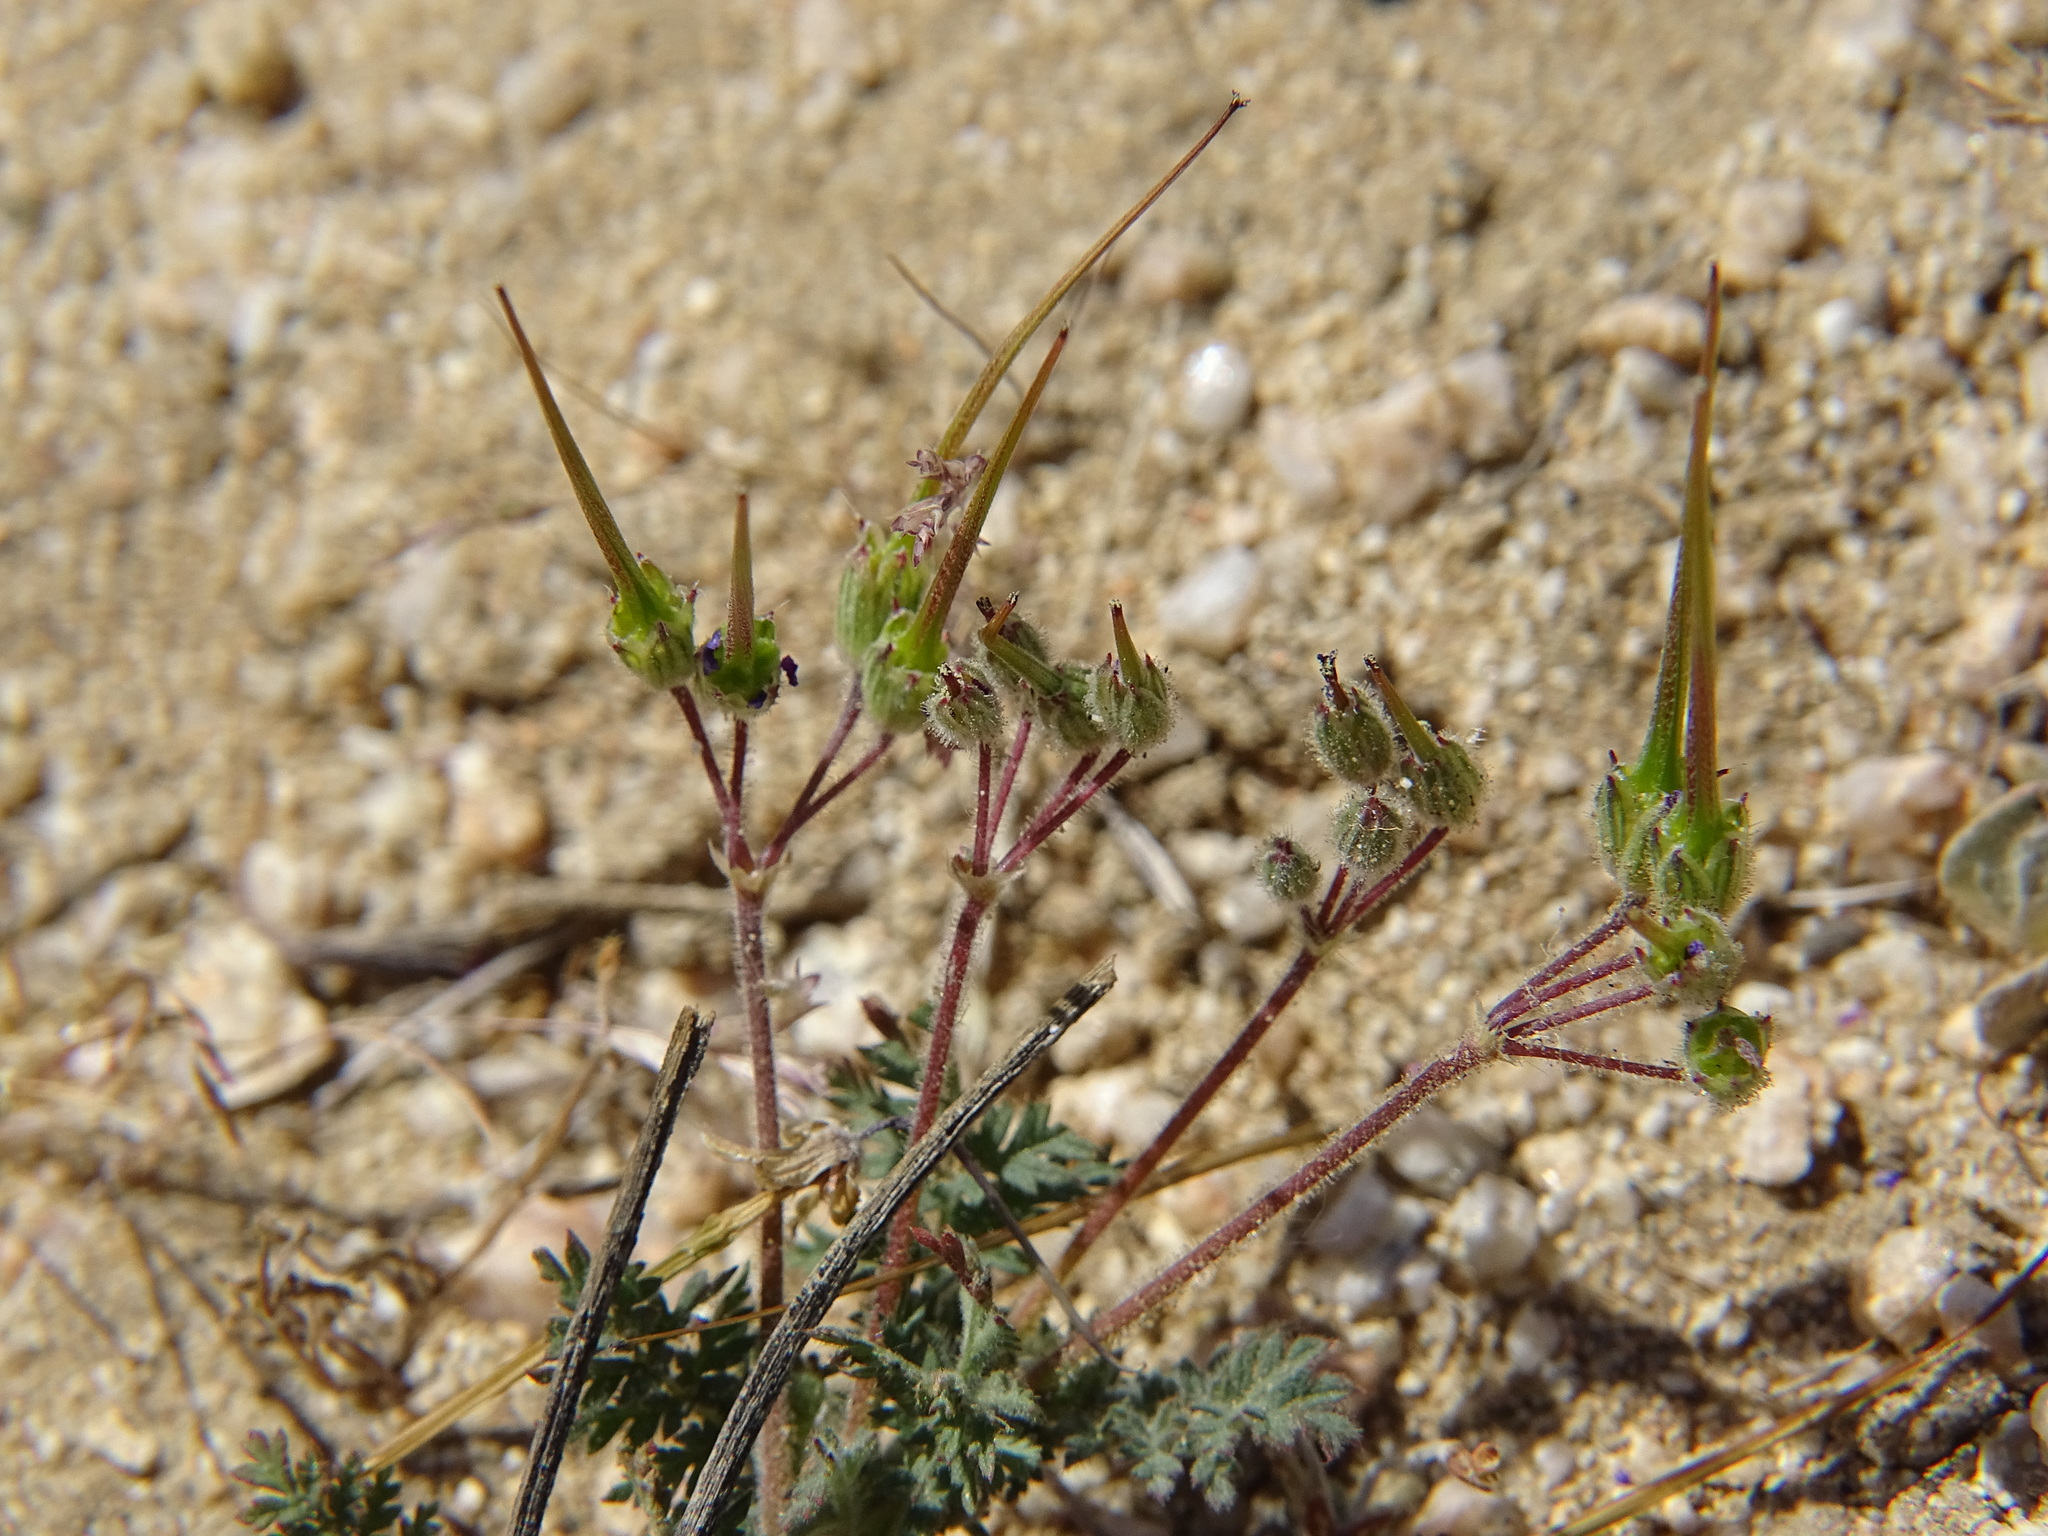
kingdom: Plantae
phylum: Tracheophyta
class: Magnoliopsida
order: Geraniales
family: Geraniaceae
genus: Erodium
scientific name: Erodium cicutarium
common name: Common stork's-bill
